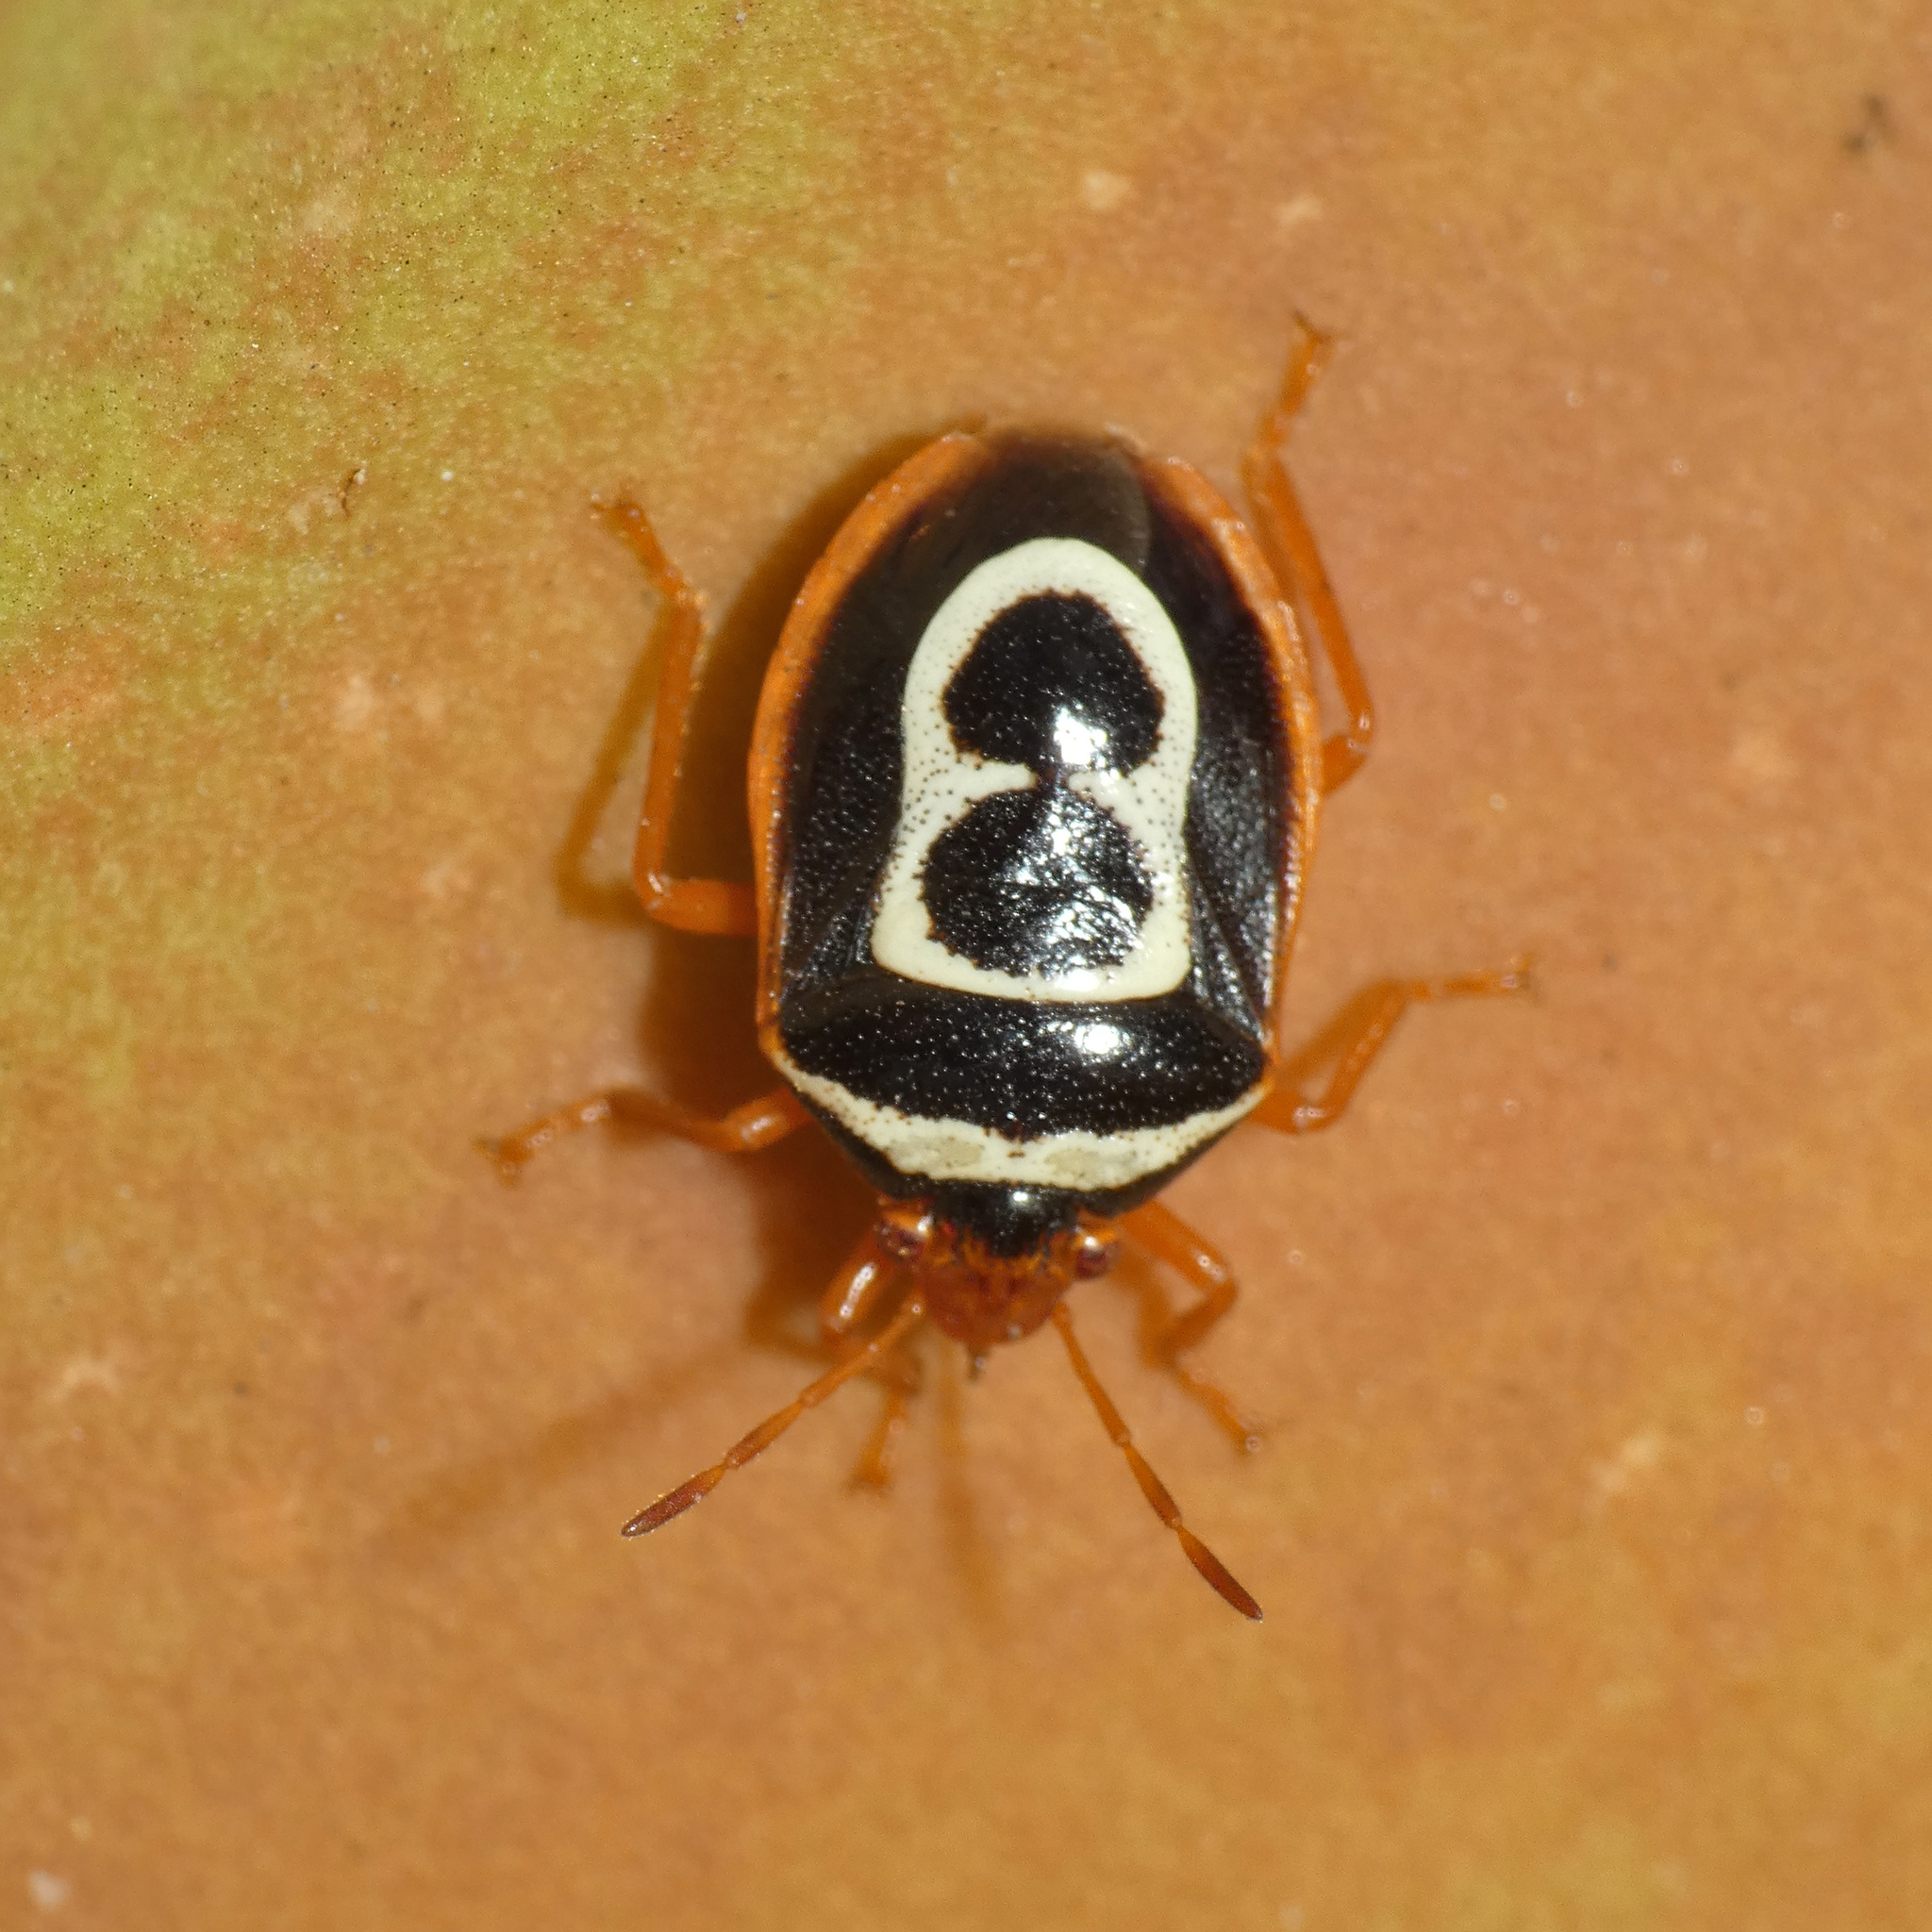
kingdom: Animalia
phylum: Arthropoda
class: Insecta
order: Hemiptera
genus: Flaminia
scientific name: Flaminia
